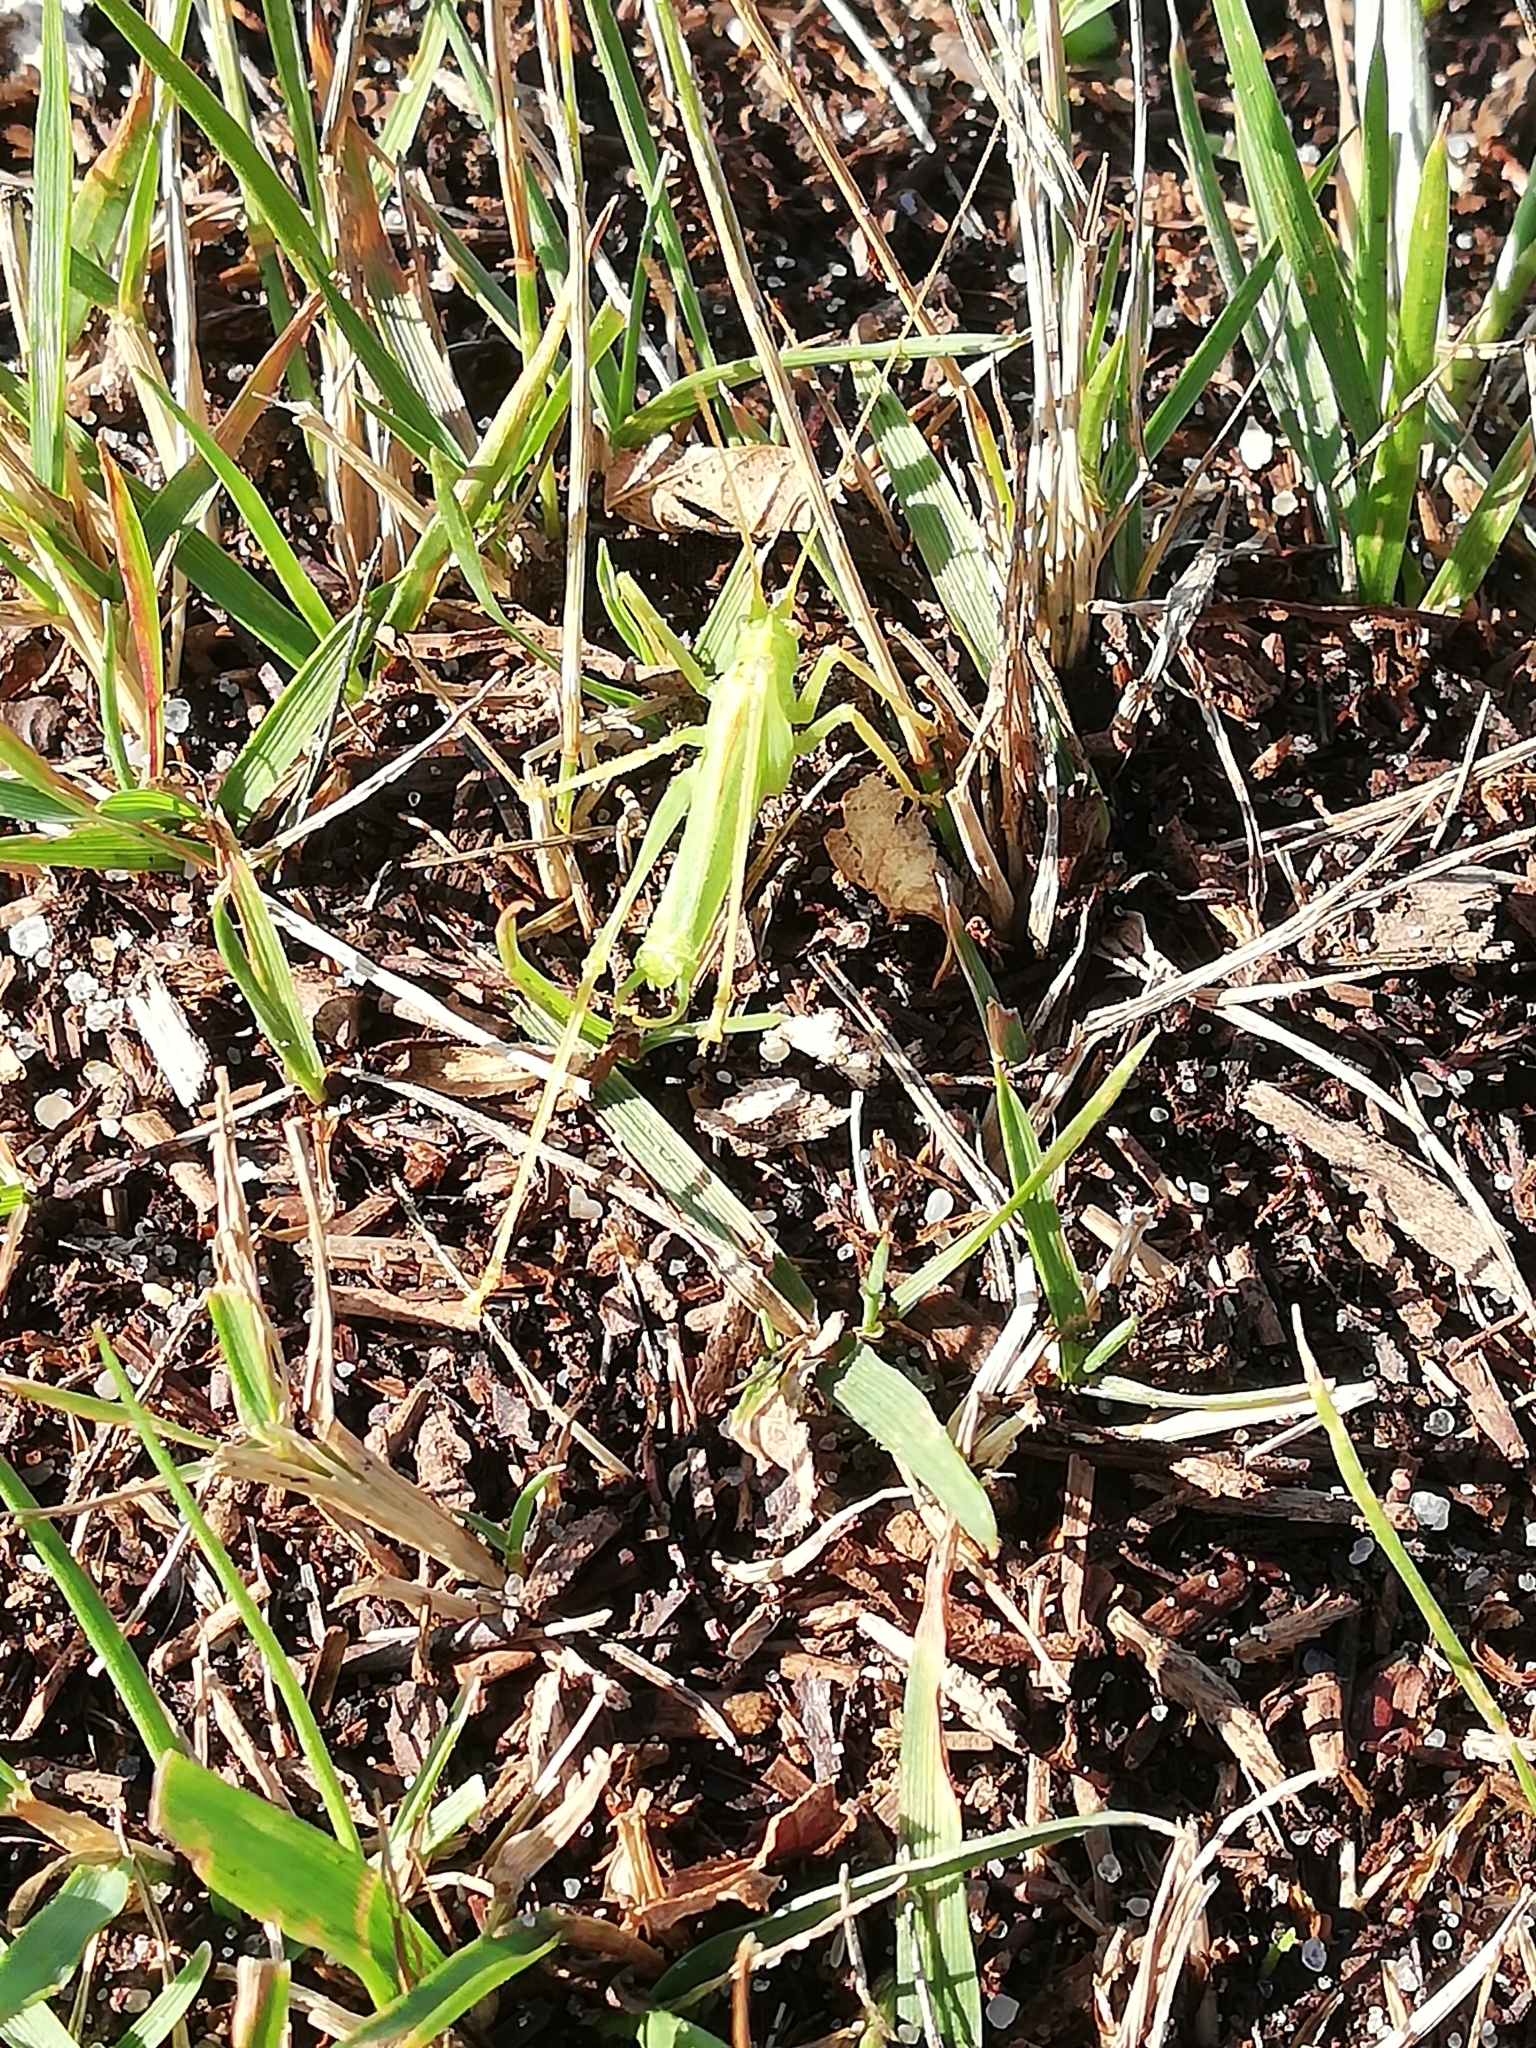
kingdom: Animalia
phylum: Arthropoda
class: Insecta
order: Orthoptera
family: Tettigoniidae
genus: Meconema
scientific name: Meconema thalassinum
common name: Oak bush-cricket
